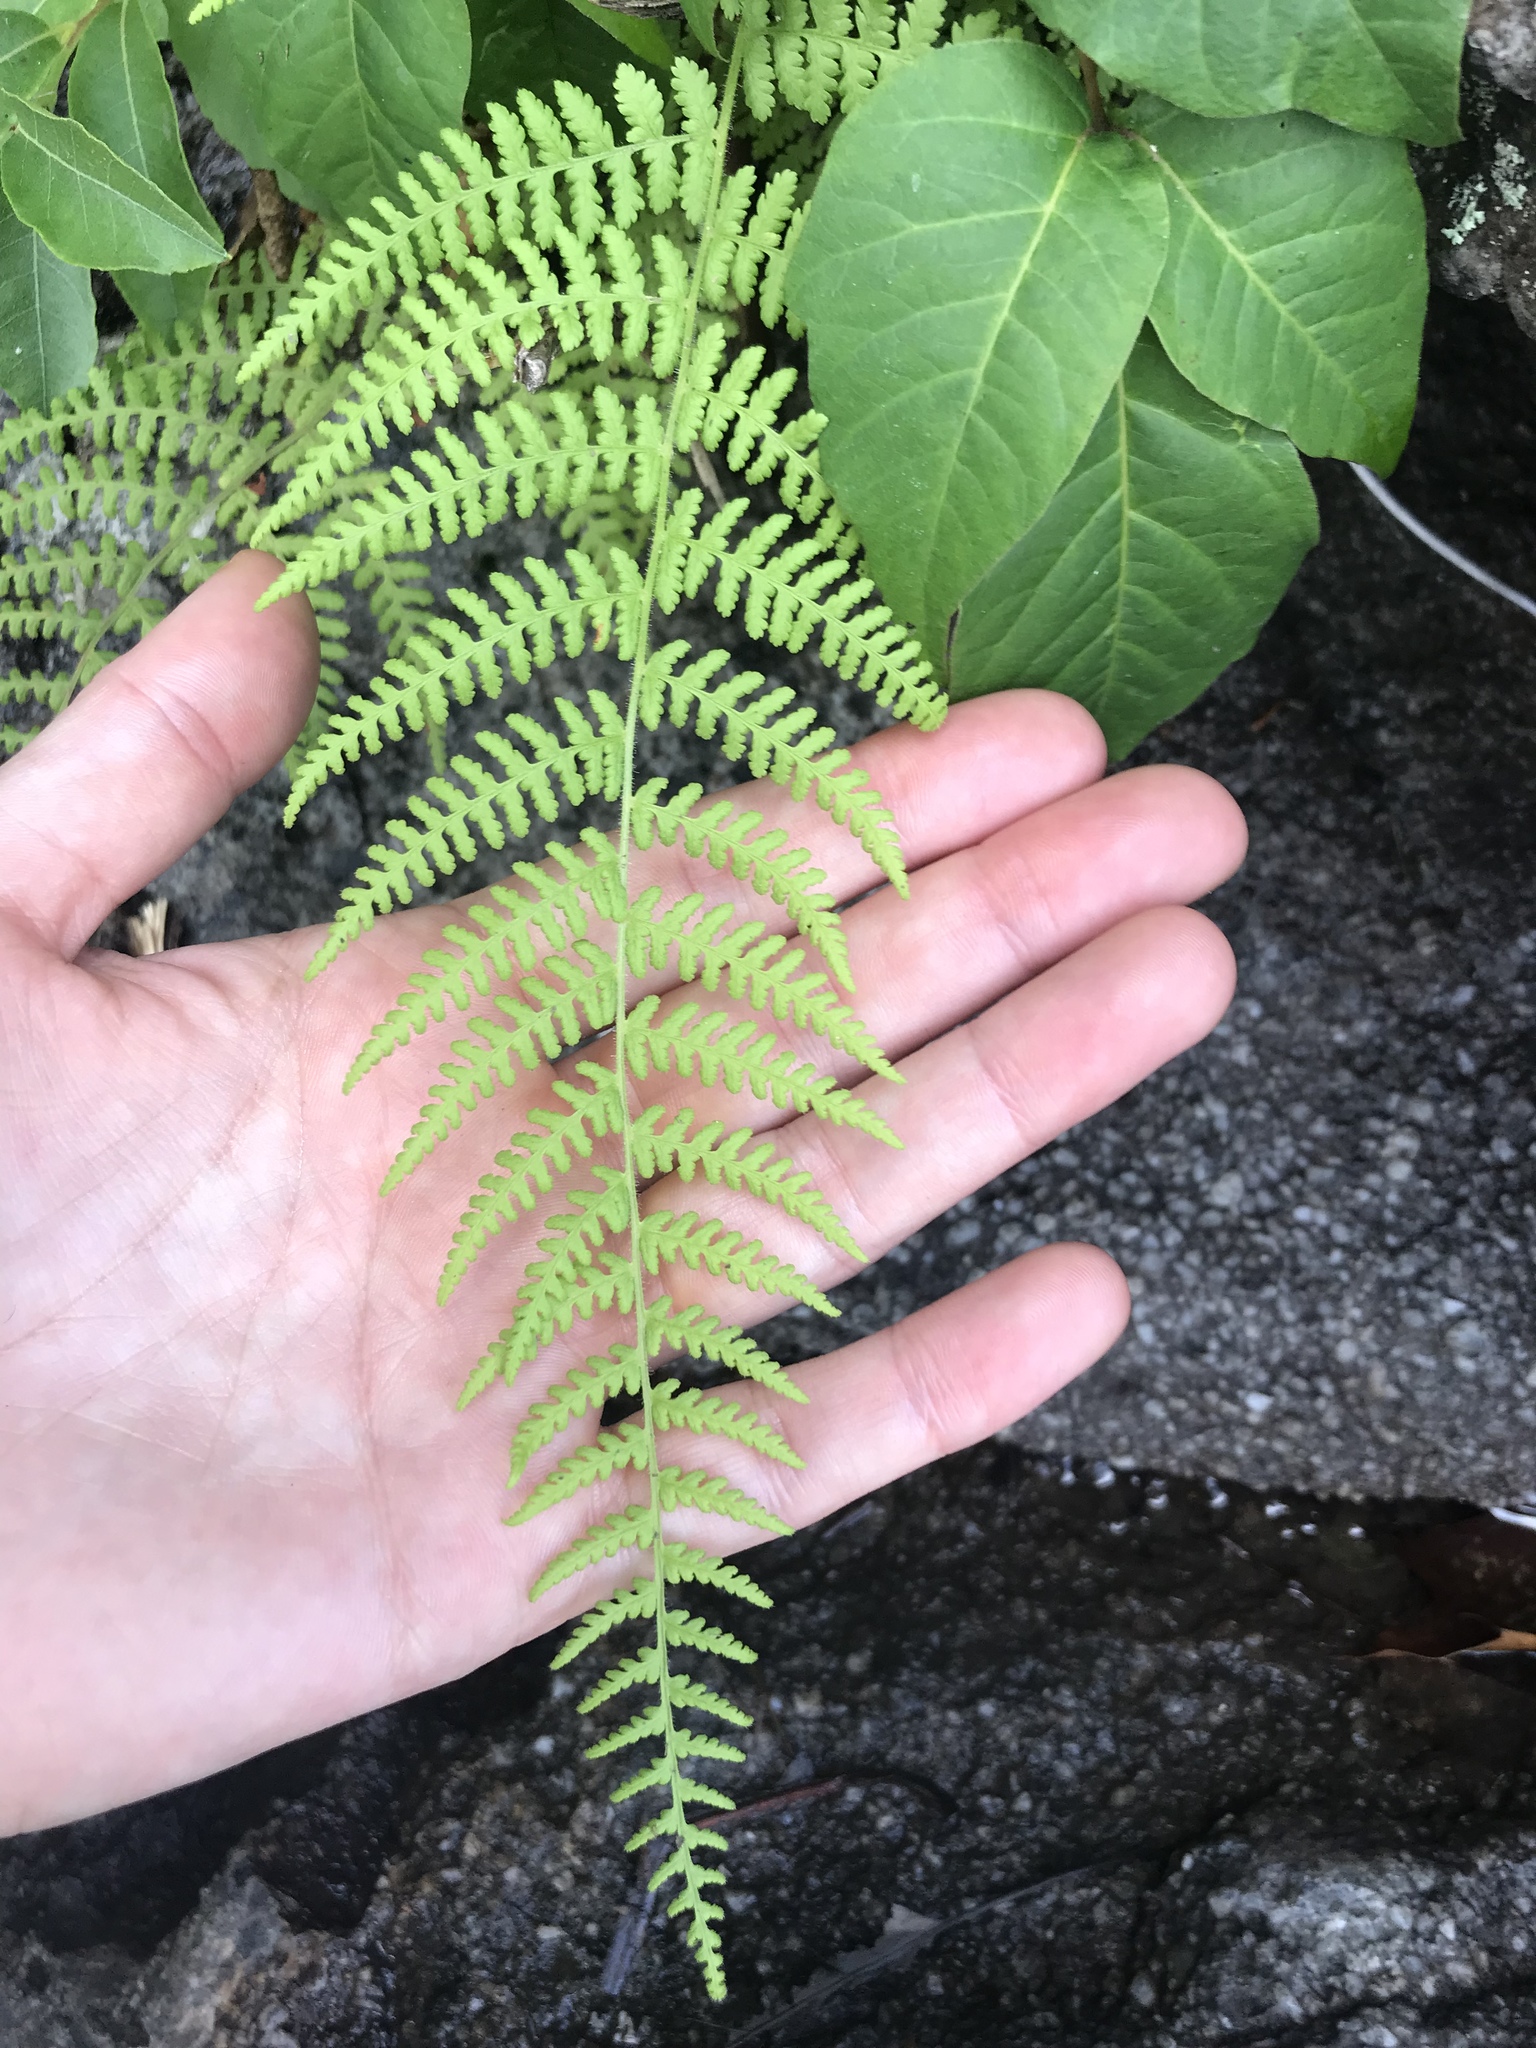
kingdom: Plantae
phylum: Tracheophyta
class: Polypodiopsida
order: Polypodiales
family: Dennstaedtiaceae
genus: Sitobolium
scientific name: Sitobolium punctilobum
